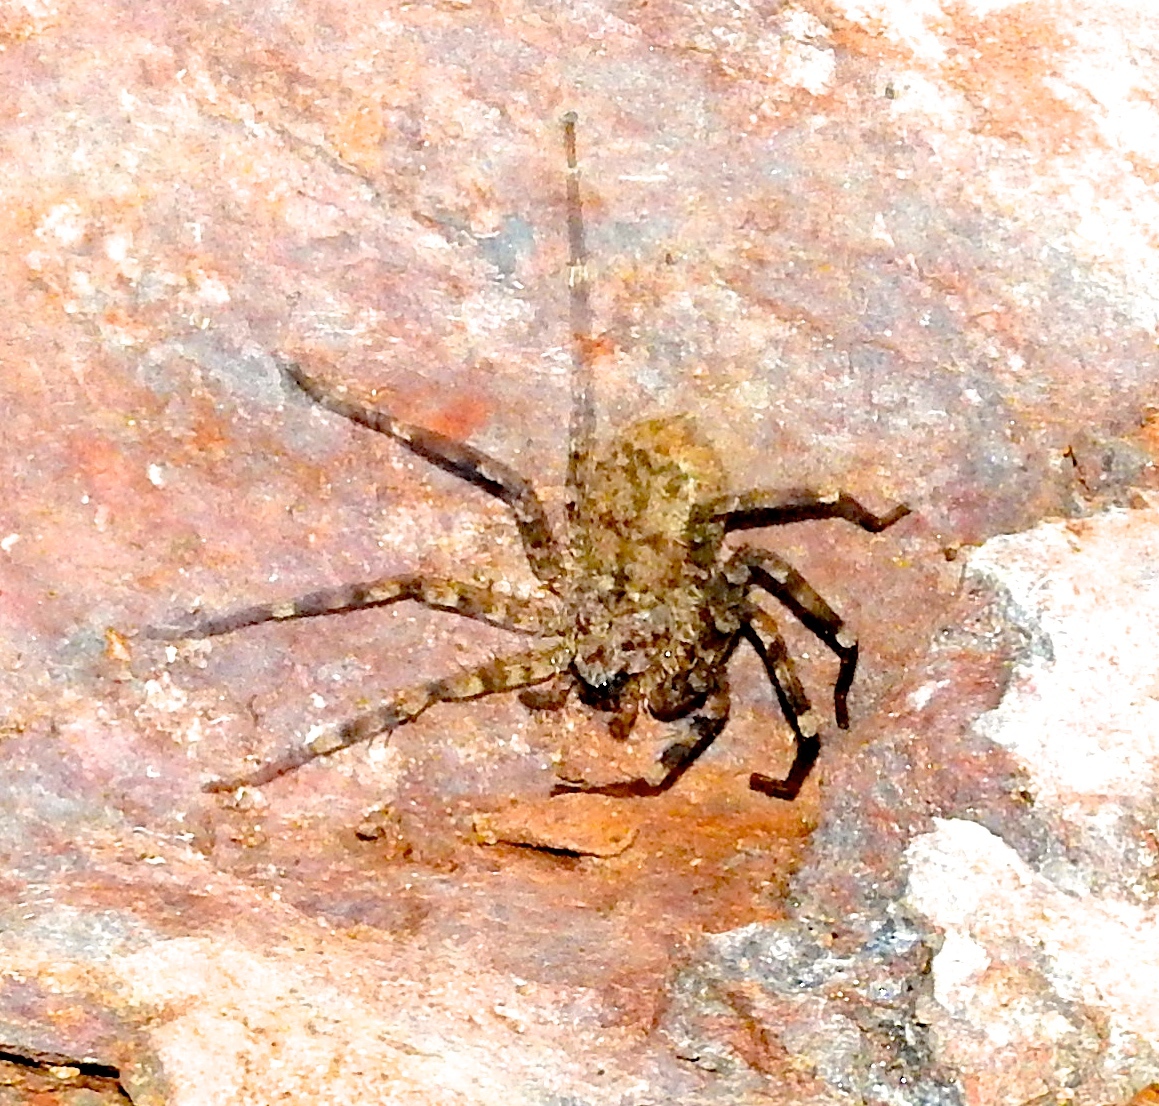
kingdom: Animalia
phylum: Arthropoda
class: Arachnida
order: Araneae
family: Selenopidae
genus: Selenops
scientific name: Selenops
